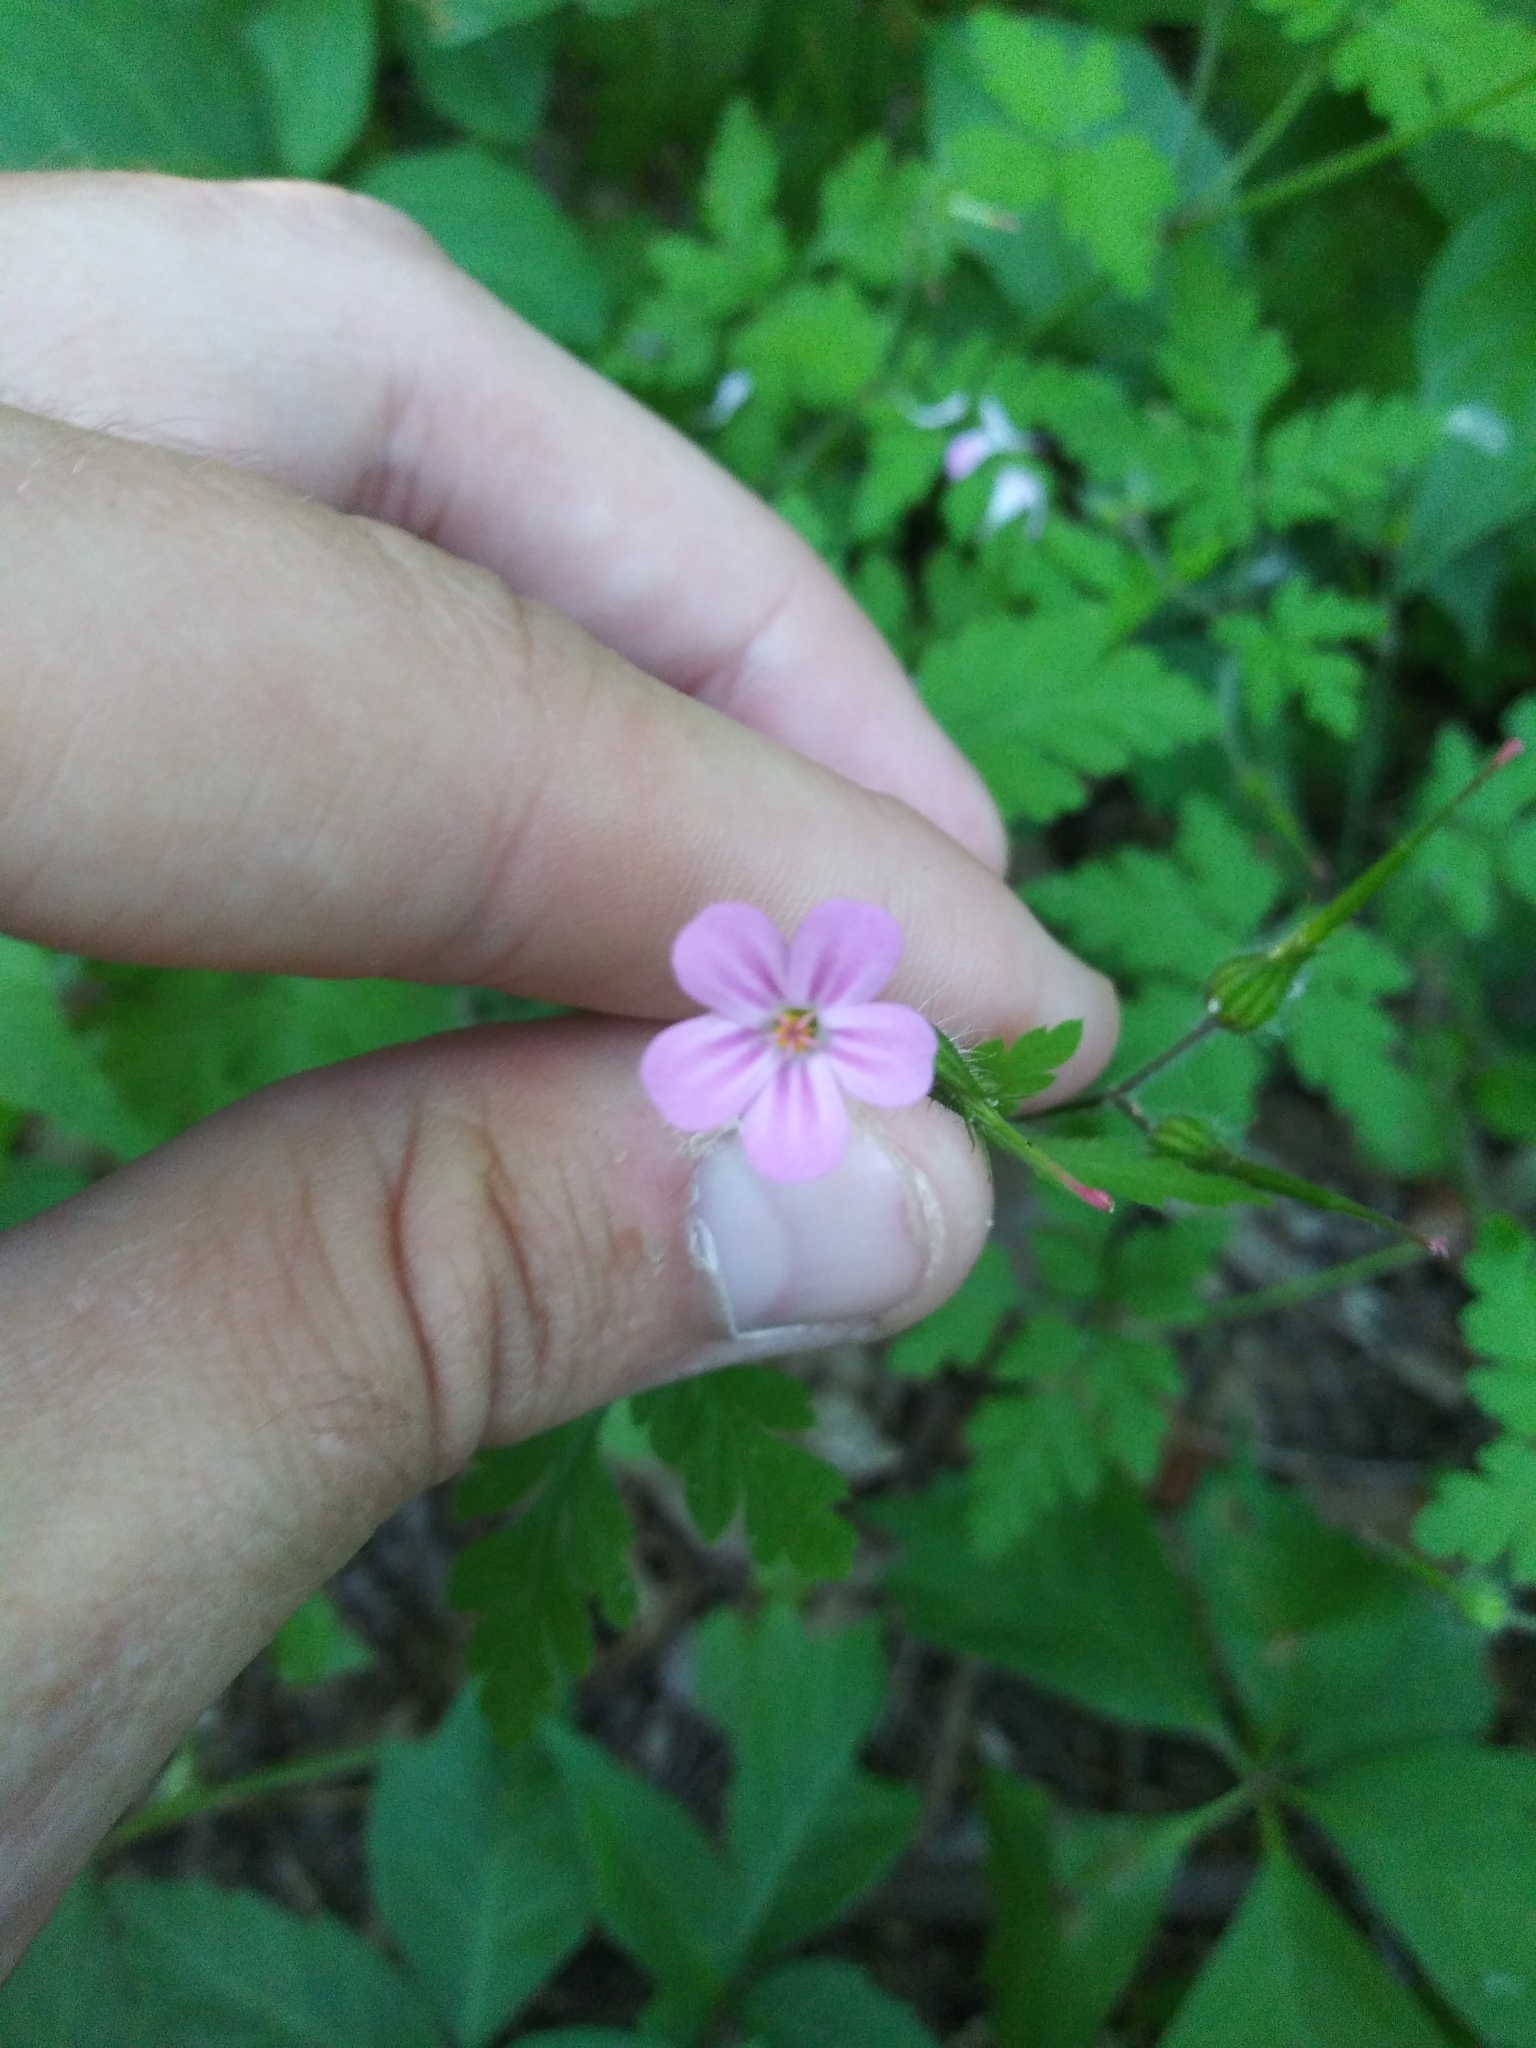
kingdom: Plantae
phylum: Tracheophyta
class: Magnoliopsida
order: Geraniales
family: Geraniaceae
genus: Geranium
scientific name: Geranium robertianum
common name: Herb-robert
